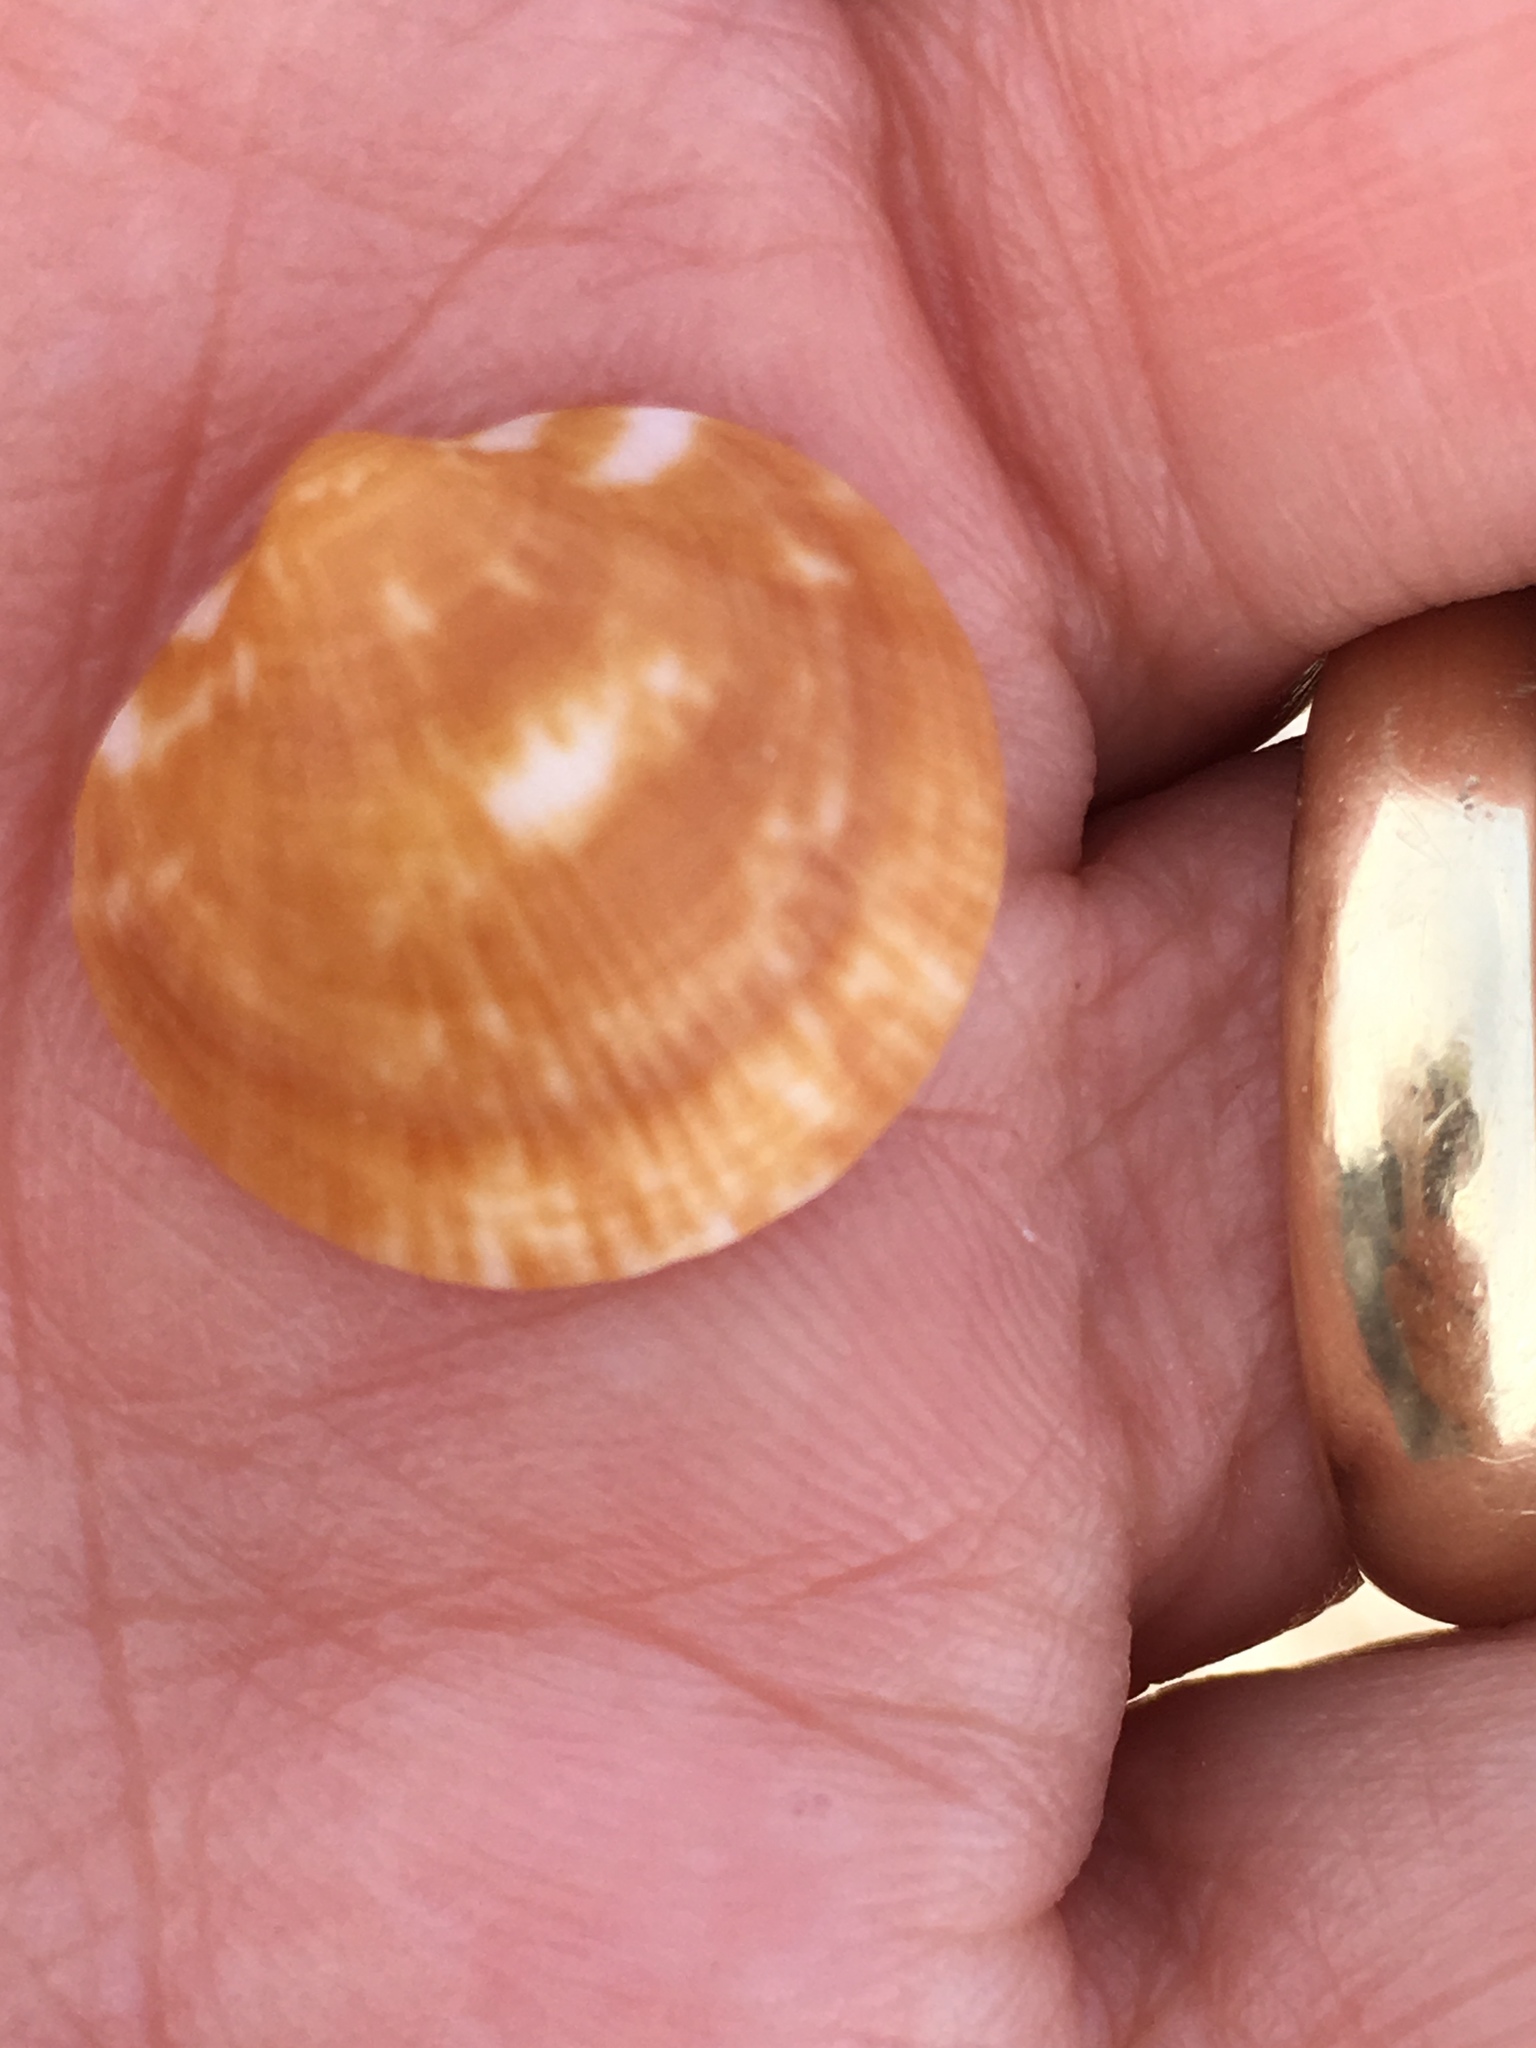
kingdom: Animalia
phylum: Mollusca
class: Bivalvia
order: Arcida
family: Glycymerididae
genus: Glycymeris
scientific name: Glycymeris americana
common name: American bittersweet
